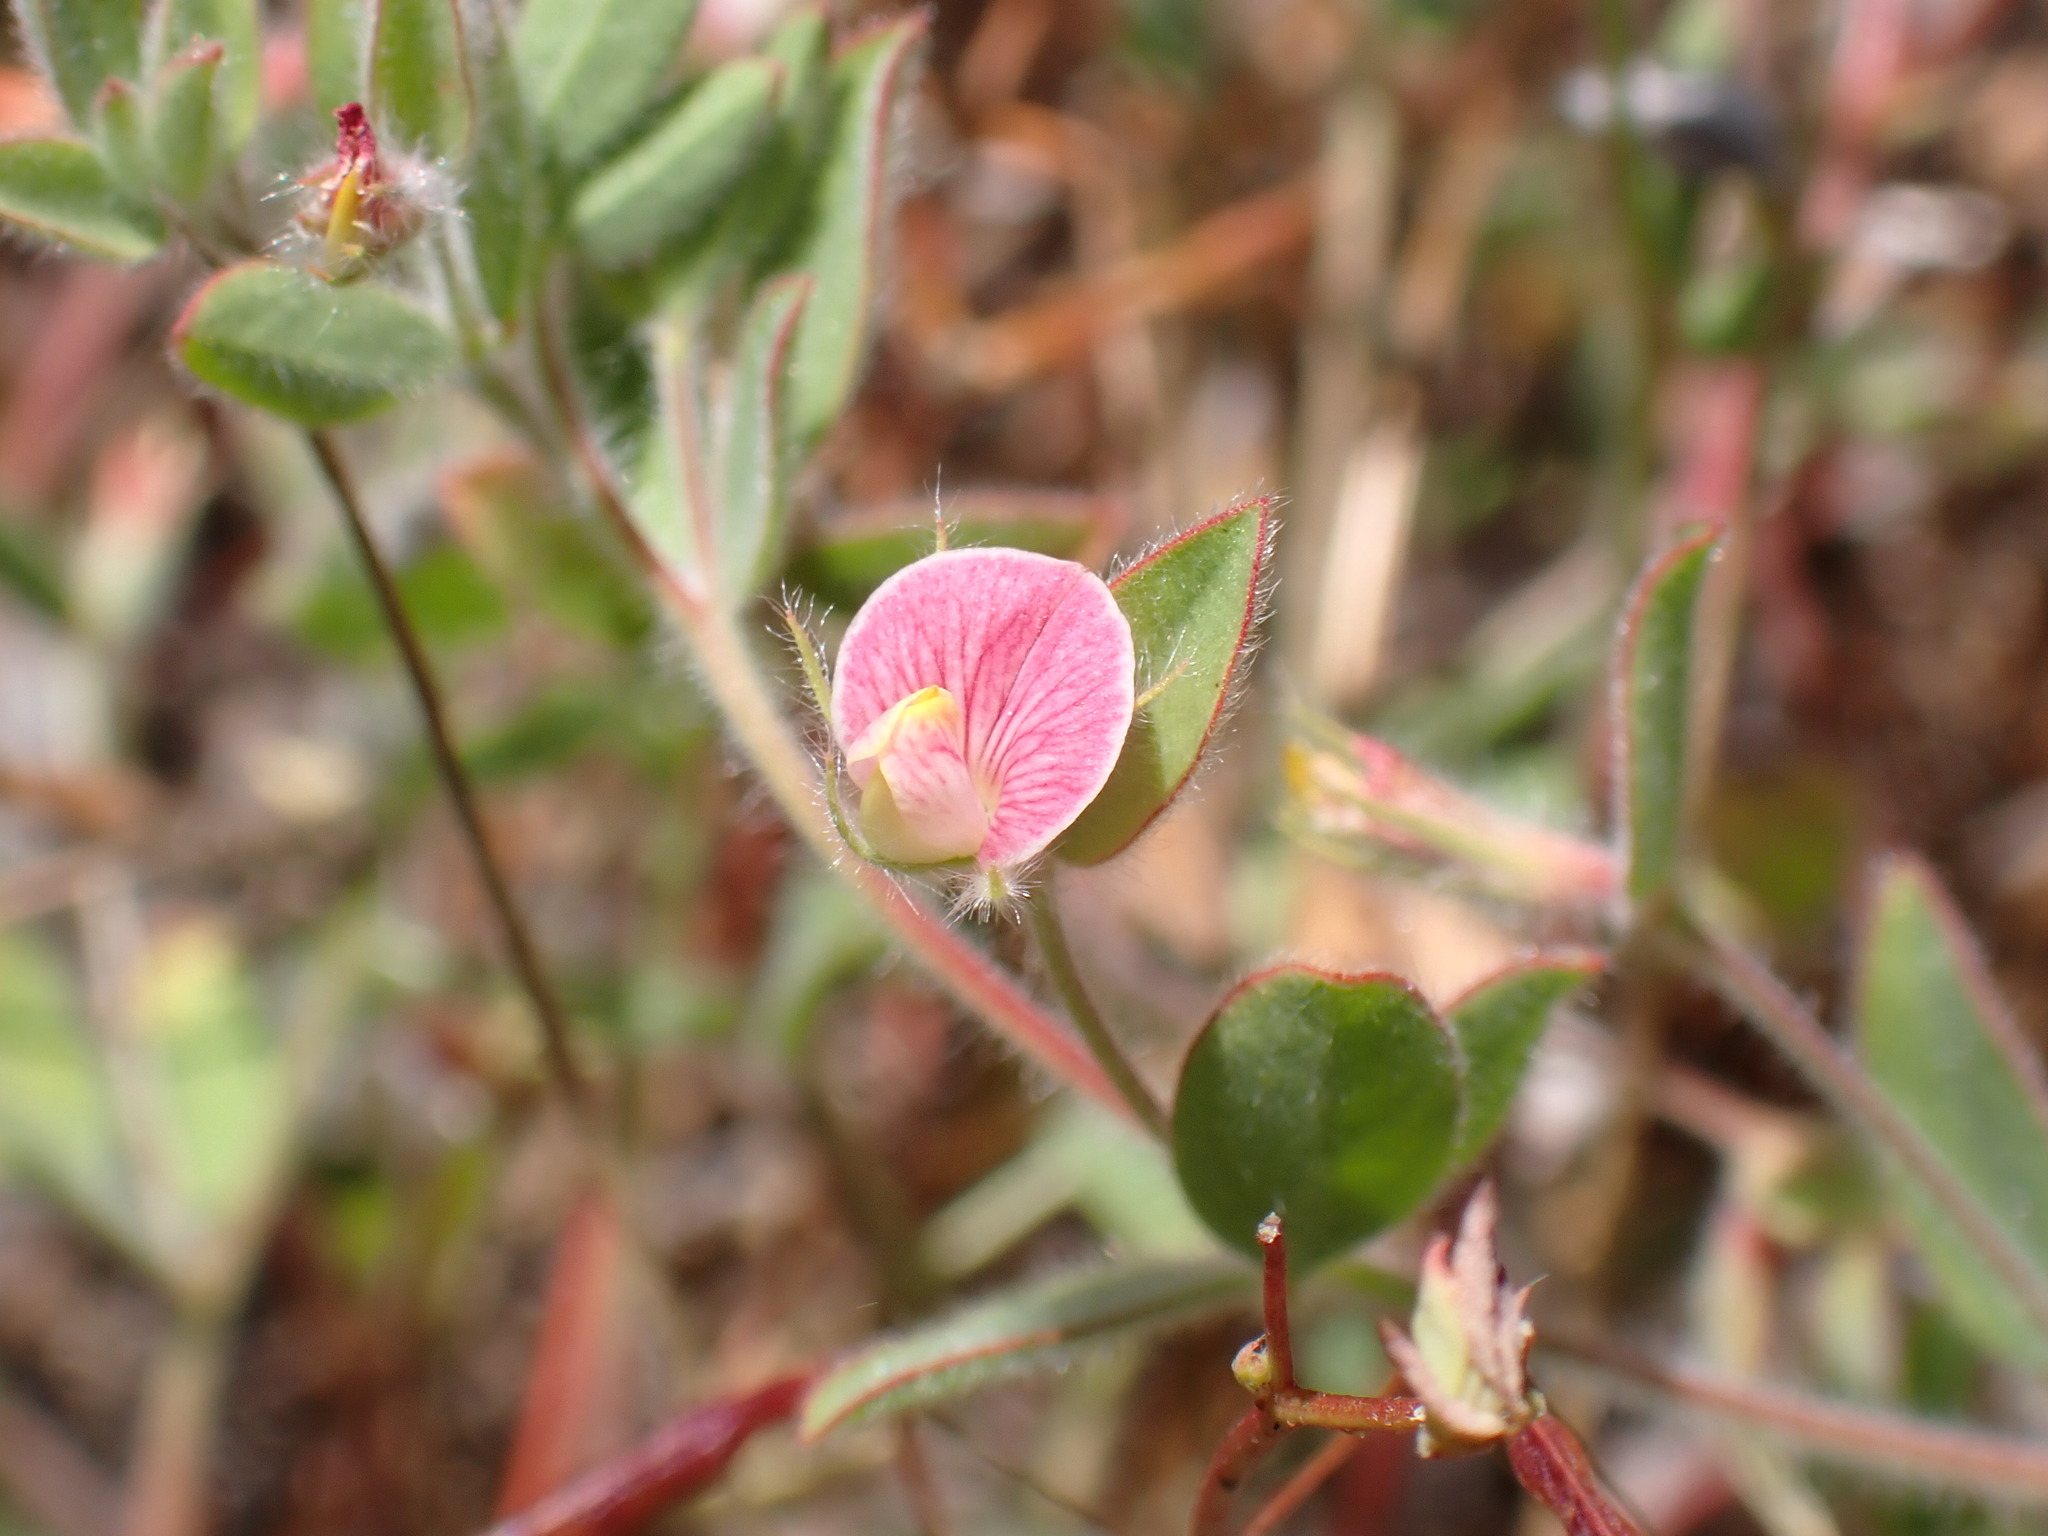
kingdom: Plantae
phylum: Tracheophyta
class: Magnoliopsida
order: Fabales
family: Fabaceae
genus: Acmispon
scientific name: Acmispon americanus
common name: American bird's-foot trefoil
